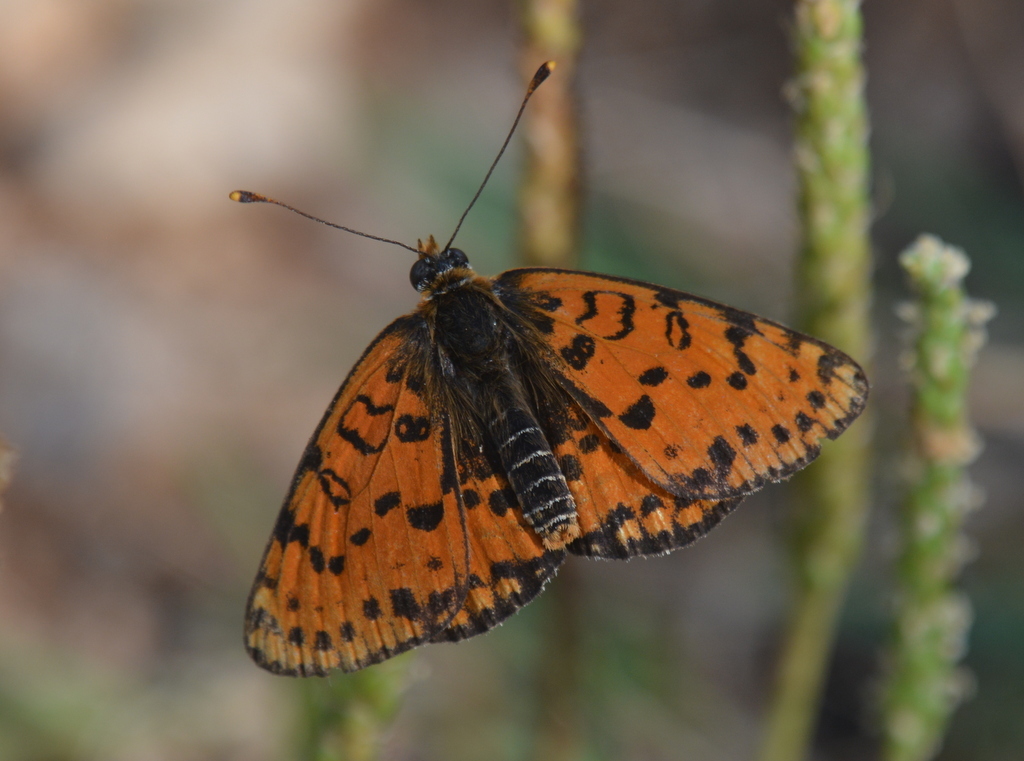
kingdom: Animalia
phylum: Arthropoda
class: Insecta
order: Lepidoptera
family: Nymphalidae
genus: Melitaea
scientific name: Melitaea didyma
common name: Spotted fritillary
